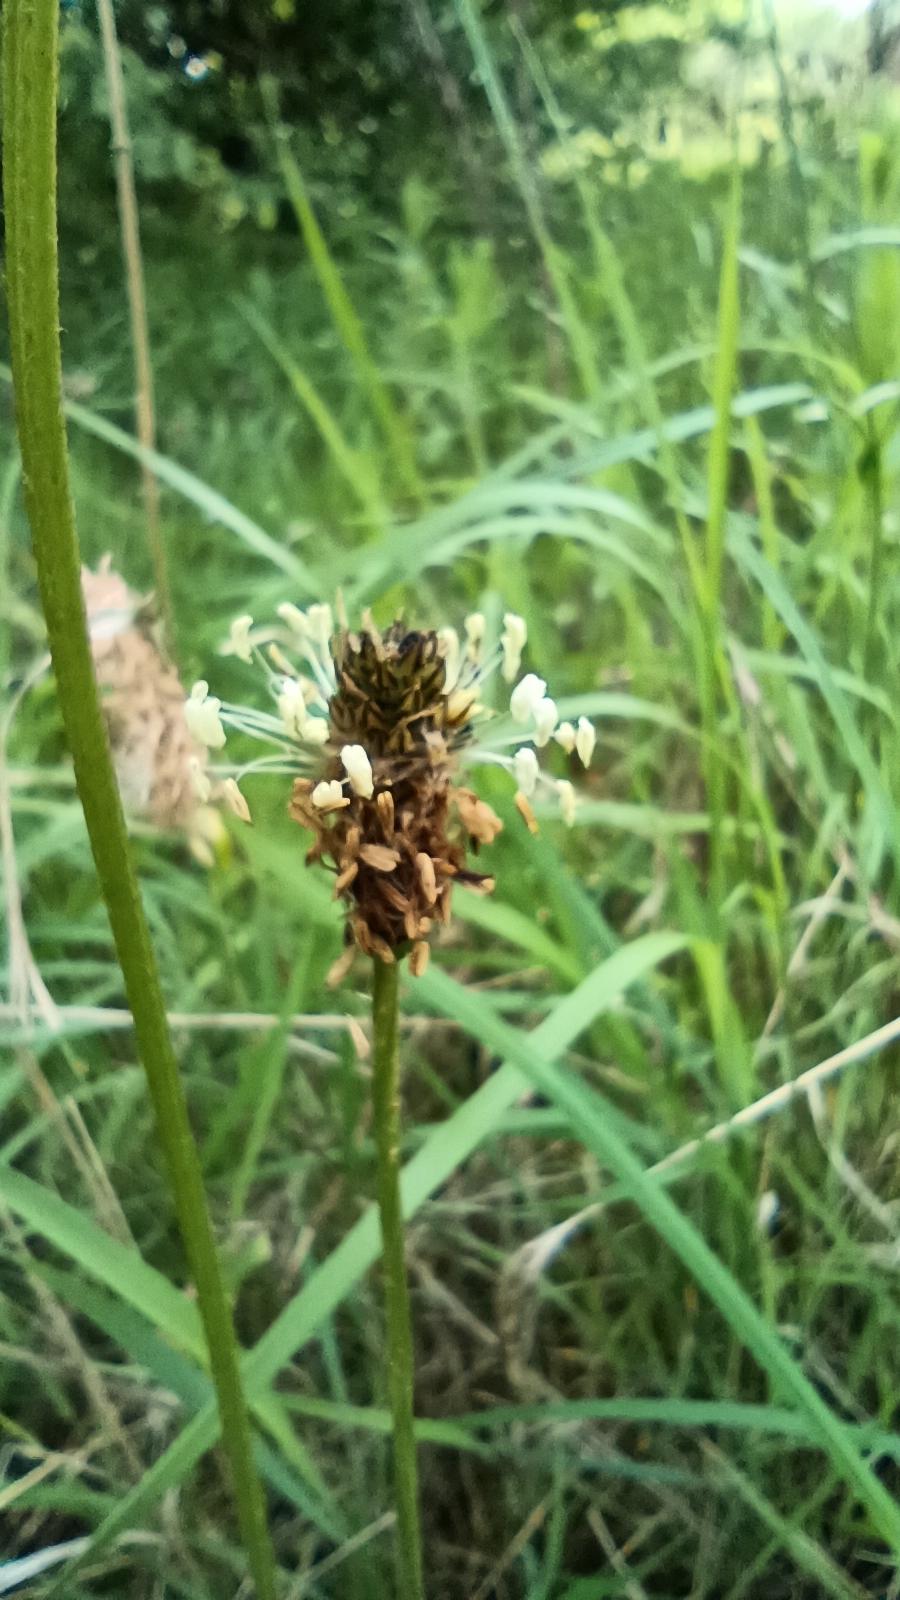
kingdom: Plantae
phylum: Tracheophyta
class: Magnoliopsida
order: Lamiales
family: Plantaginaceae
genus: Plantago
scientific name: Plantago lanceolata
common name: Ribwort plantain
